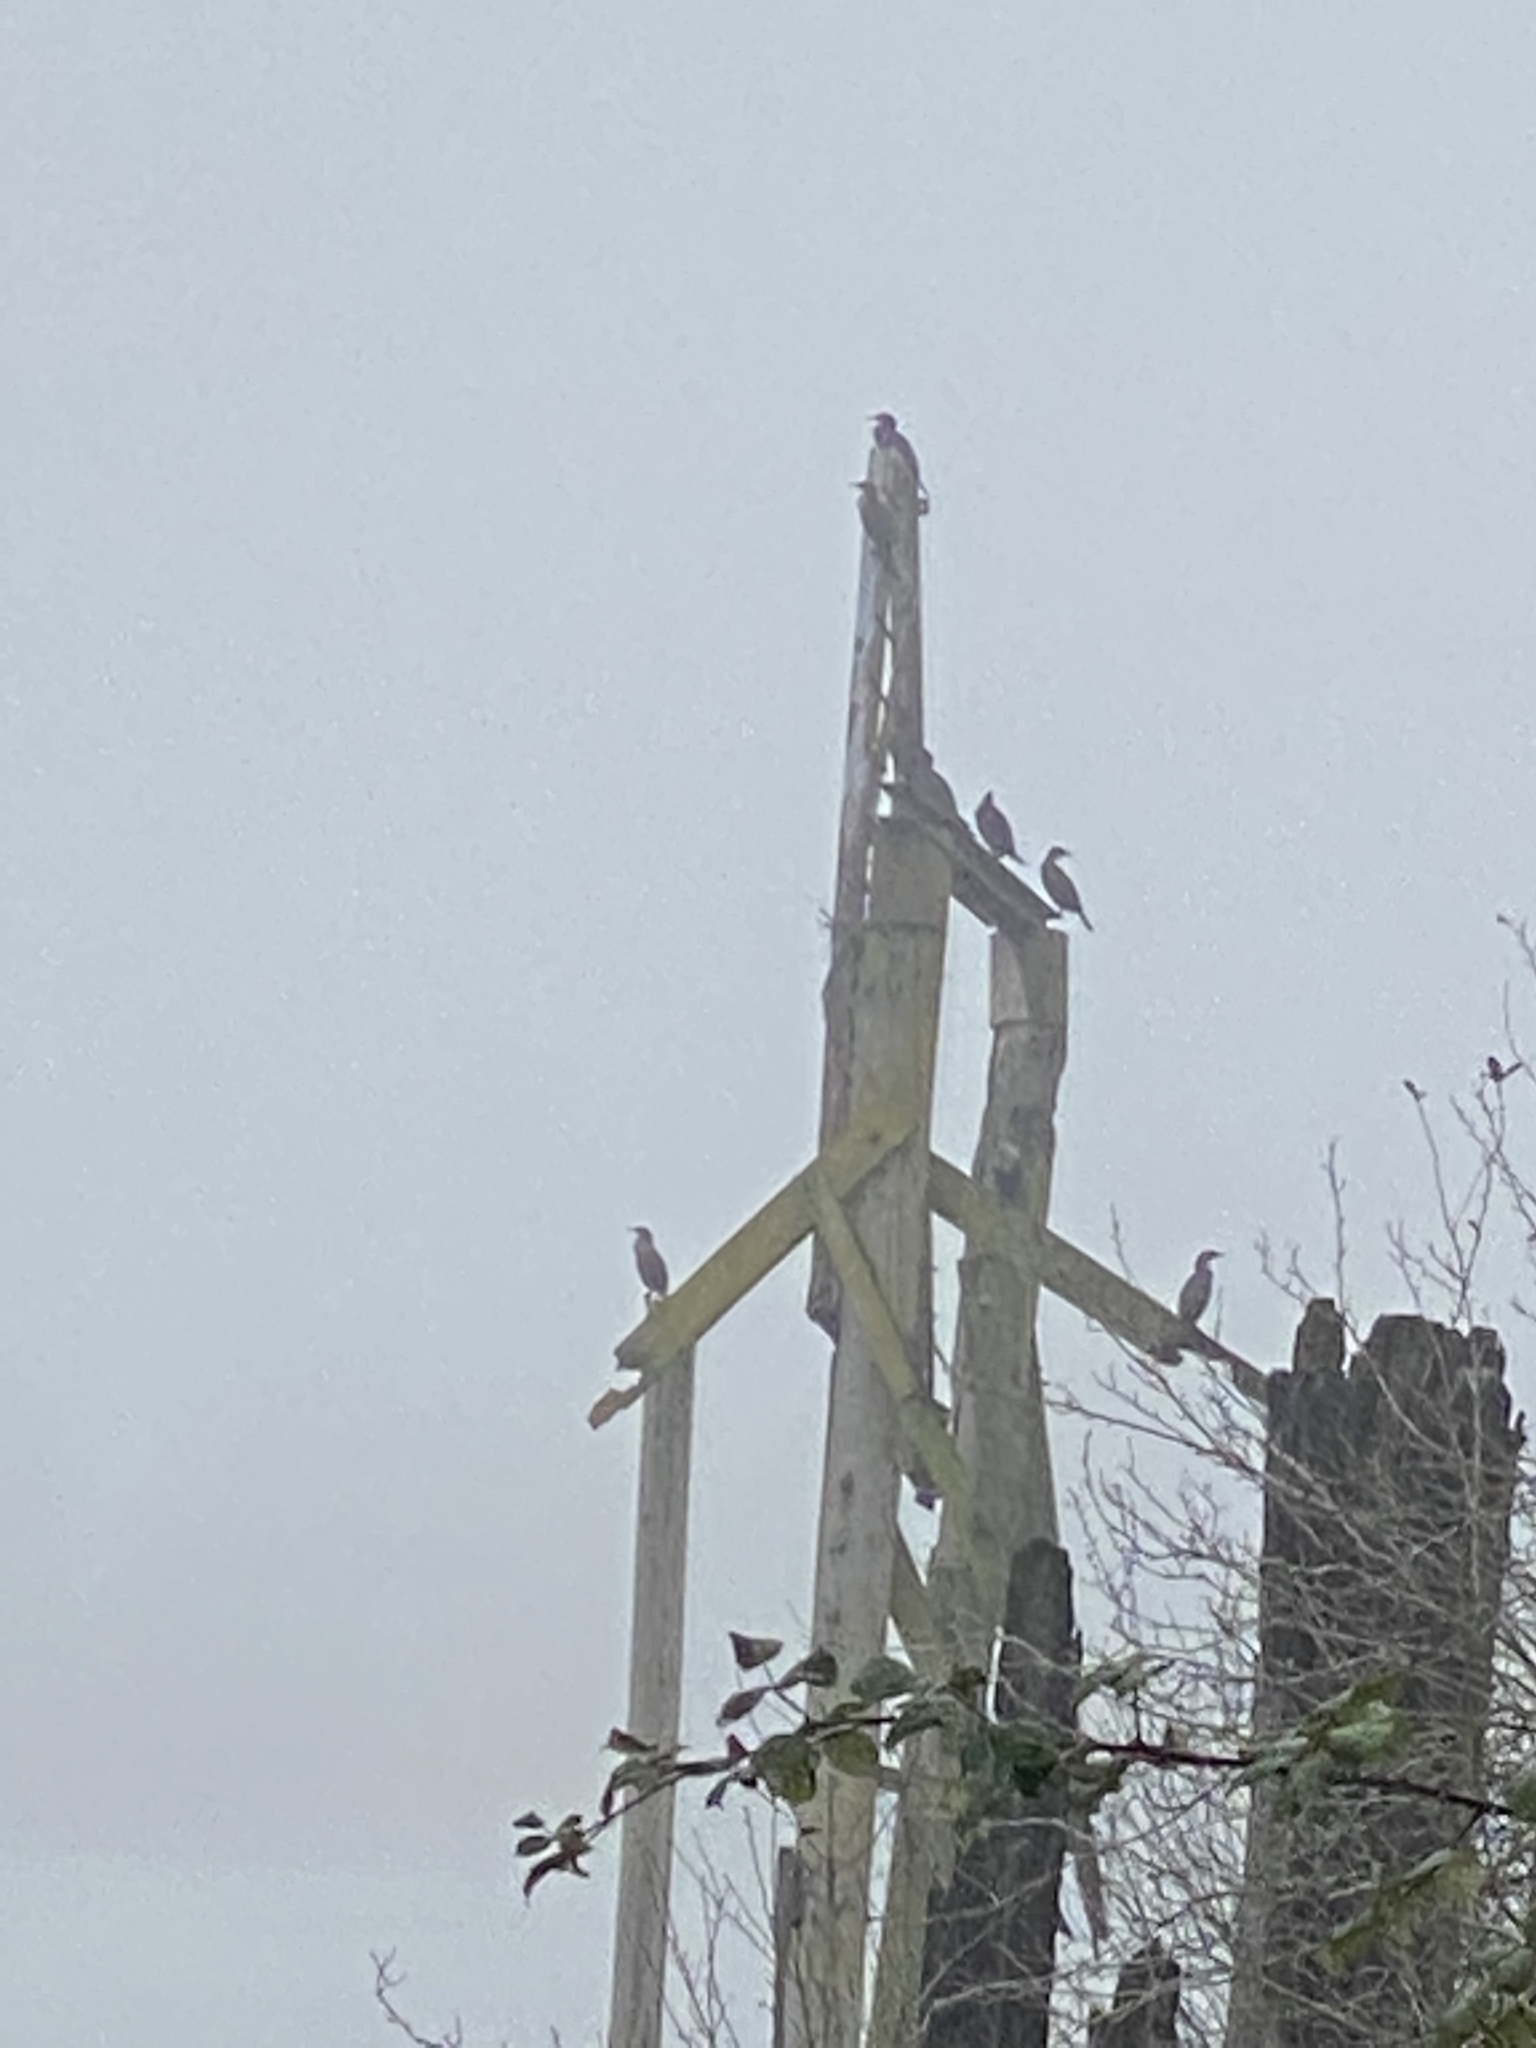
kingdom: Animalia
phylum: Chordata
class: Aves
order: Suliformes
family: Phalacrocoracidae
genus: Phalacrocorax
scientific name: Phalacrocorax auritus
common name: Double-crested cormorant
